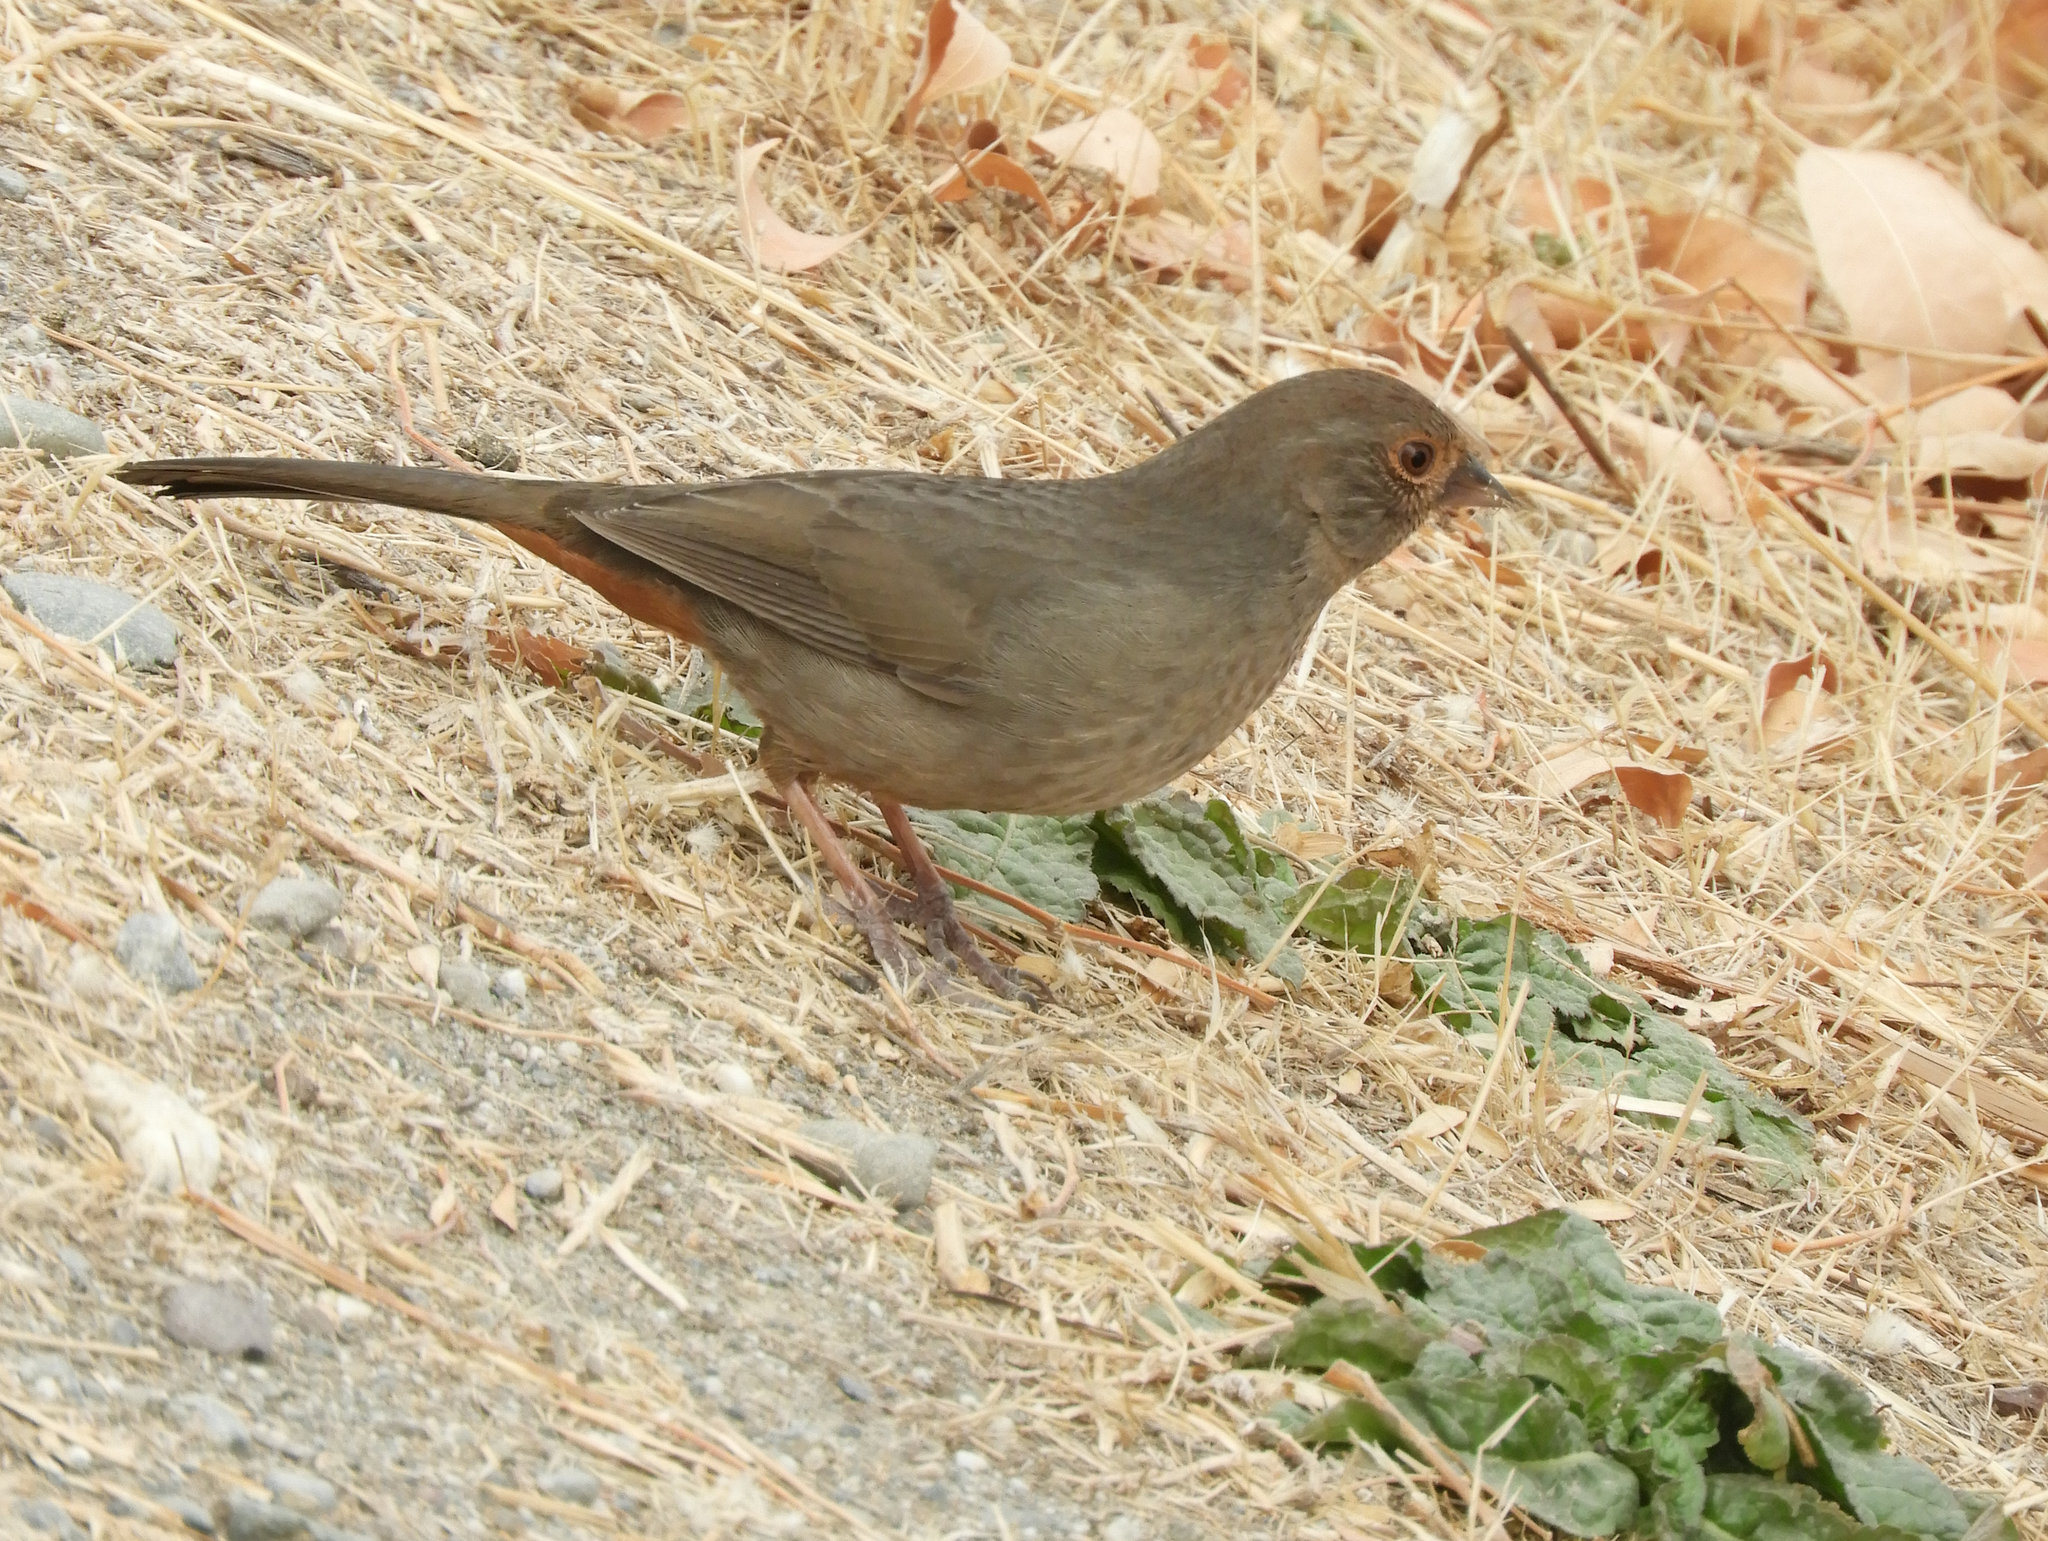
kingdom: Animalia
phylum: Chordata
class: Aves
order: Passeriformes
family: Passerellidae
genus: Melozone
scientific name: Melozone crissalis
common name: California towhee
